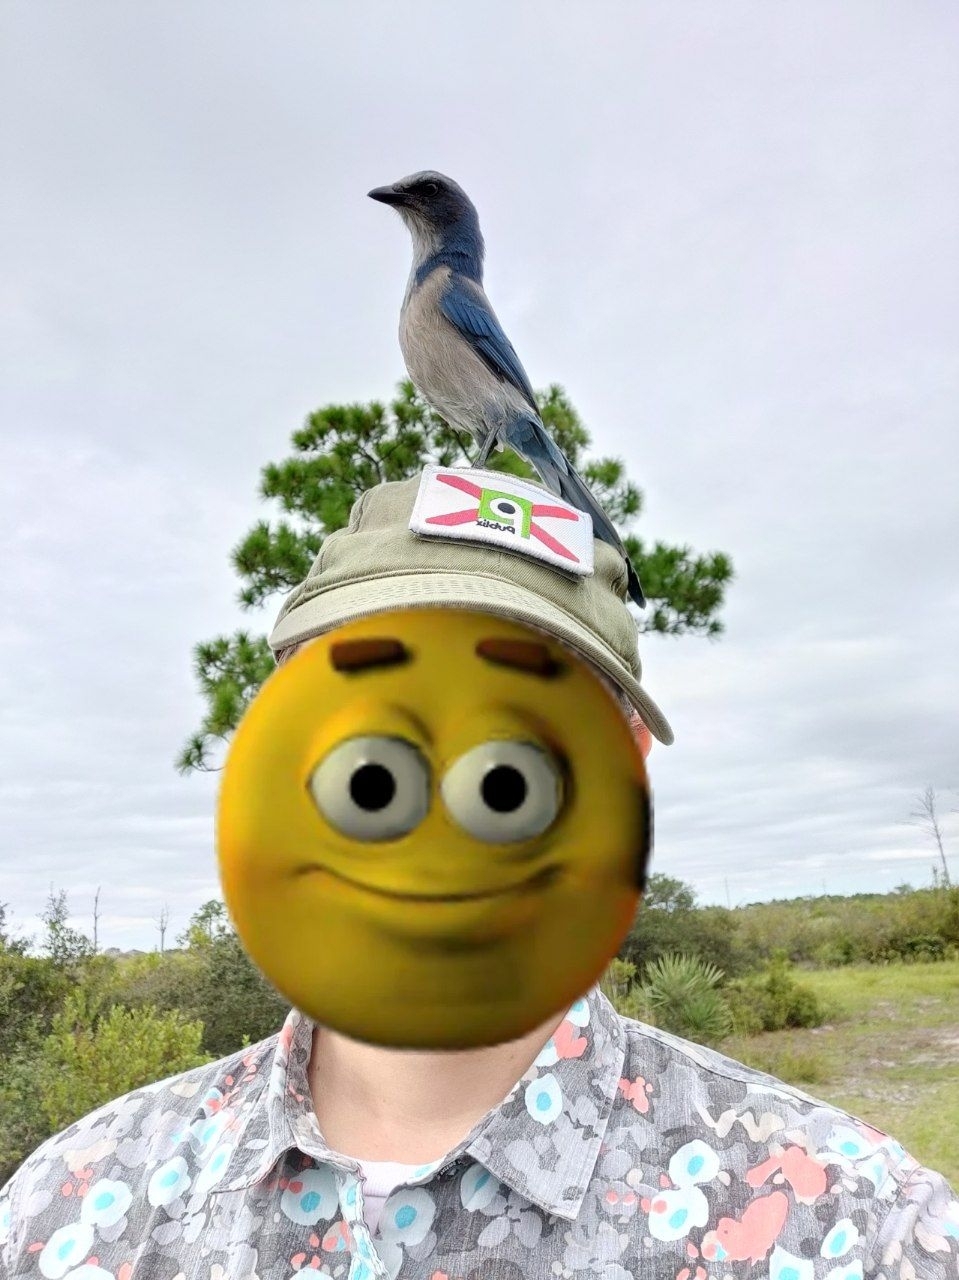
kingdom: Animalia
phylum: Chordata
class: Aves
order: Passeriformes
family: Corvidae
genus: Aphelocoma
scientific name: Aphelocoma coerulescens
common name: Florida scrub jay
